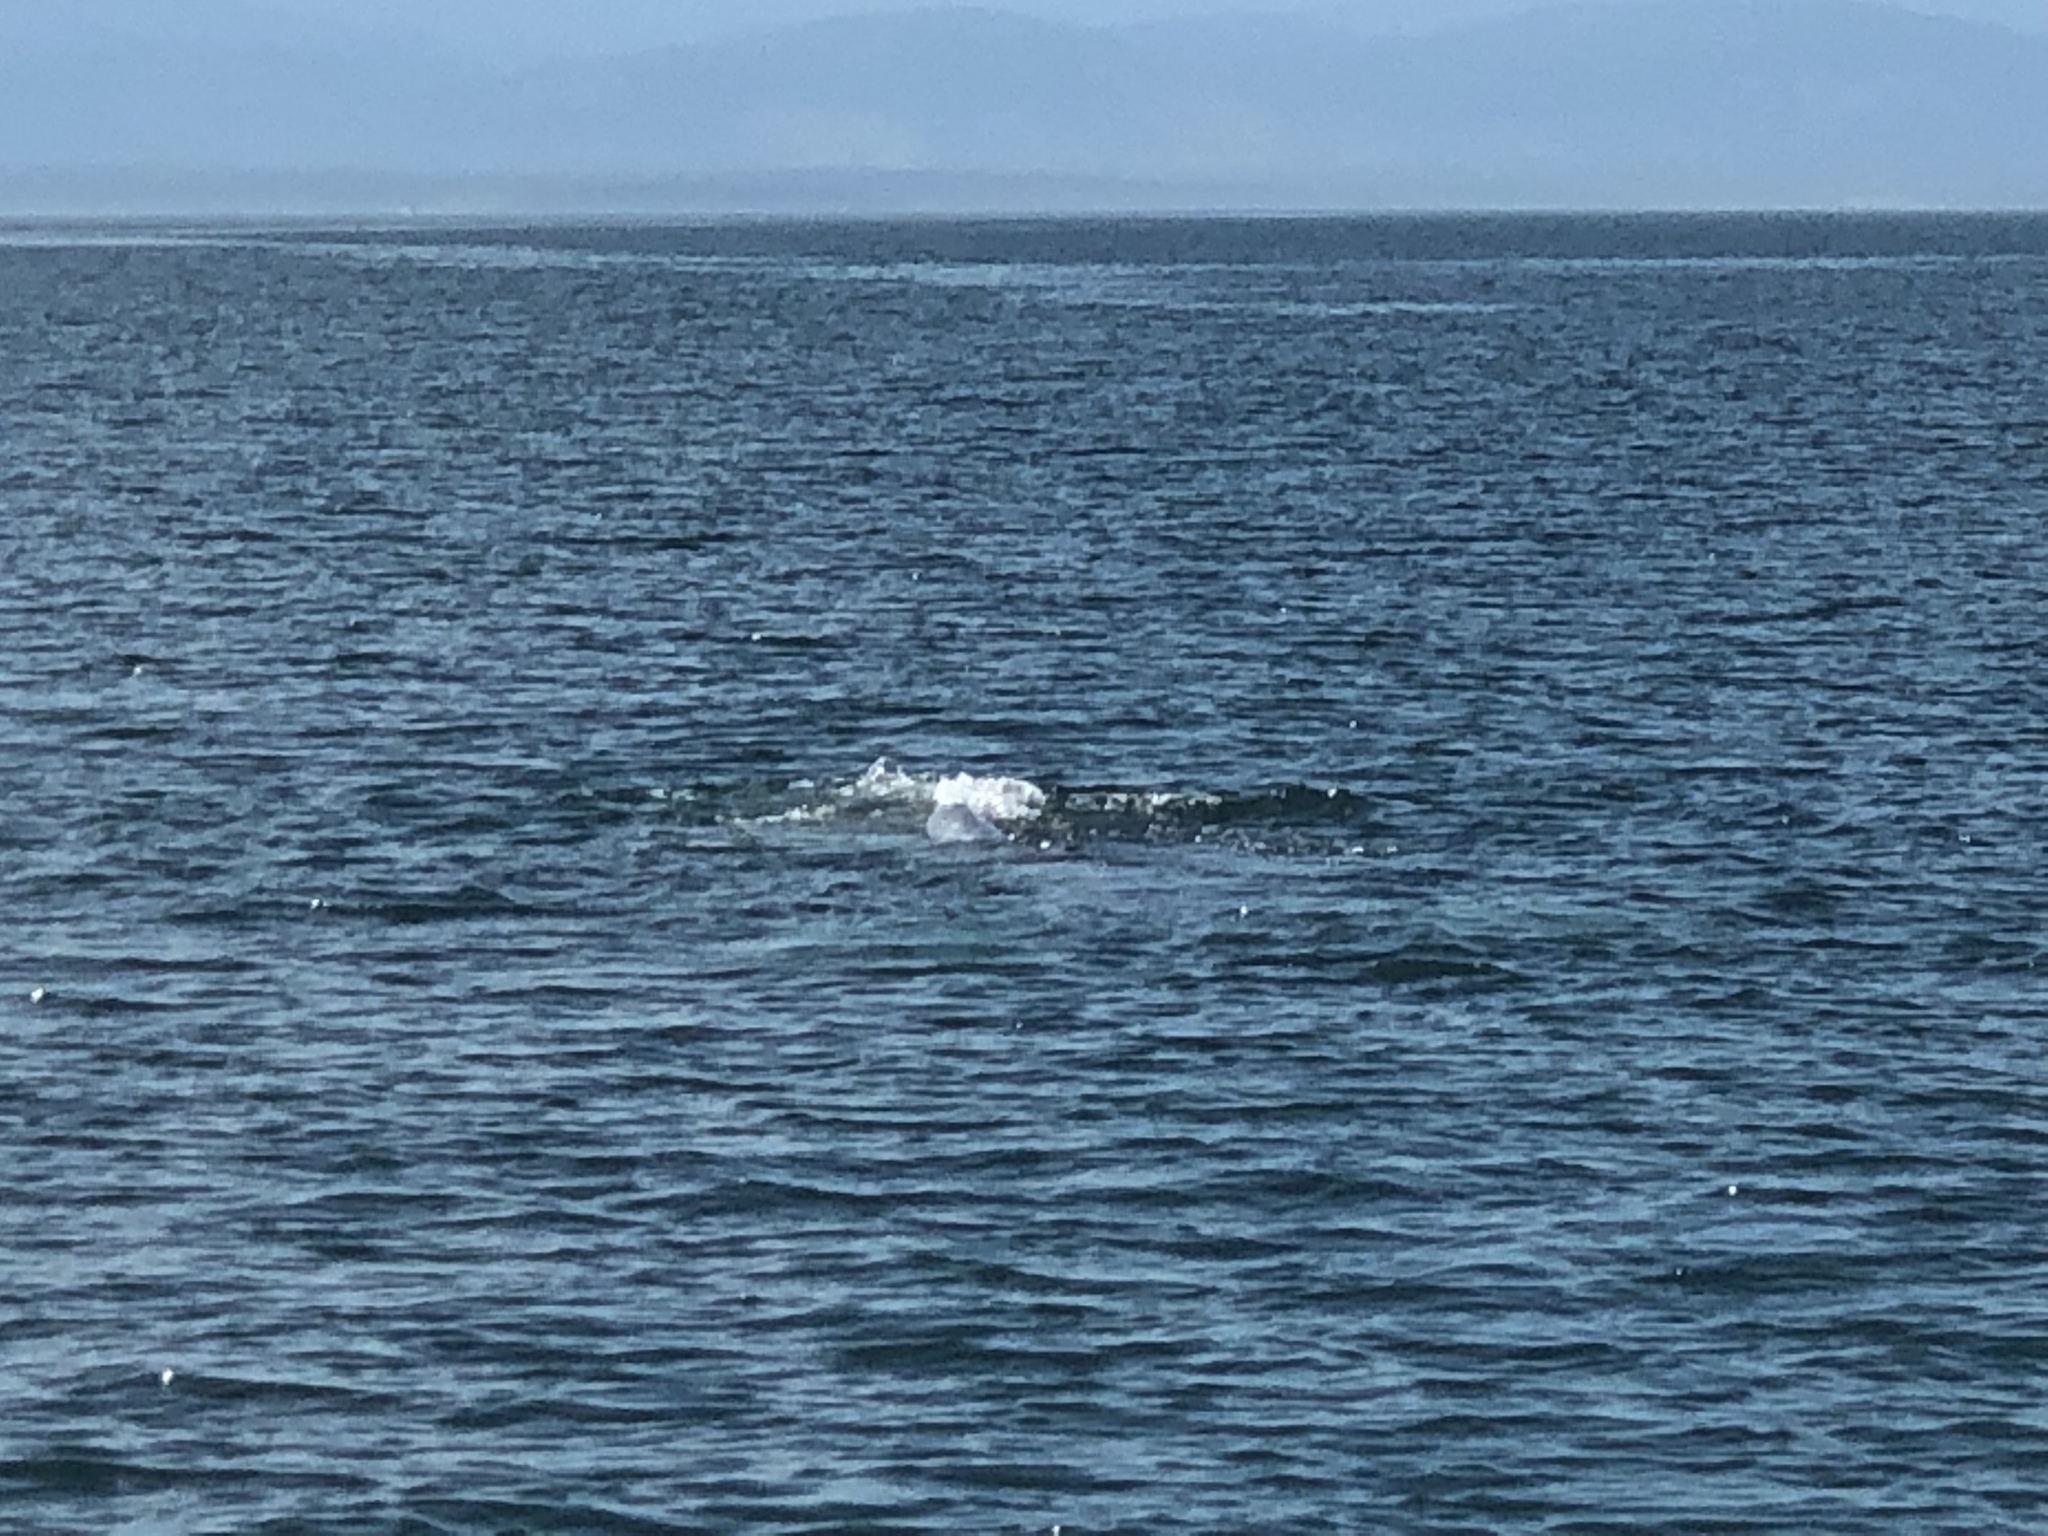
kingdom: Animalia
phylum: Chordata
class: Mammalia
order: Cetacea
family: Eschrichtiidae
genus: Eschrichtius
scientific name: Eschrichtius robustus
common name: Gray whale
